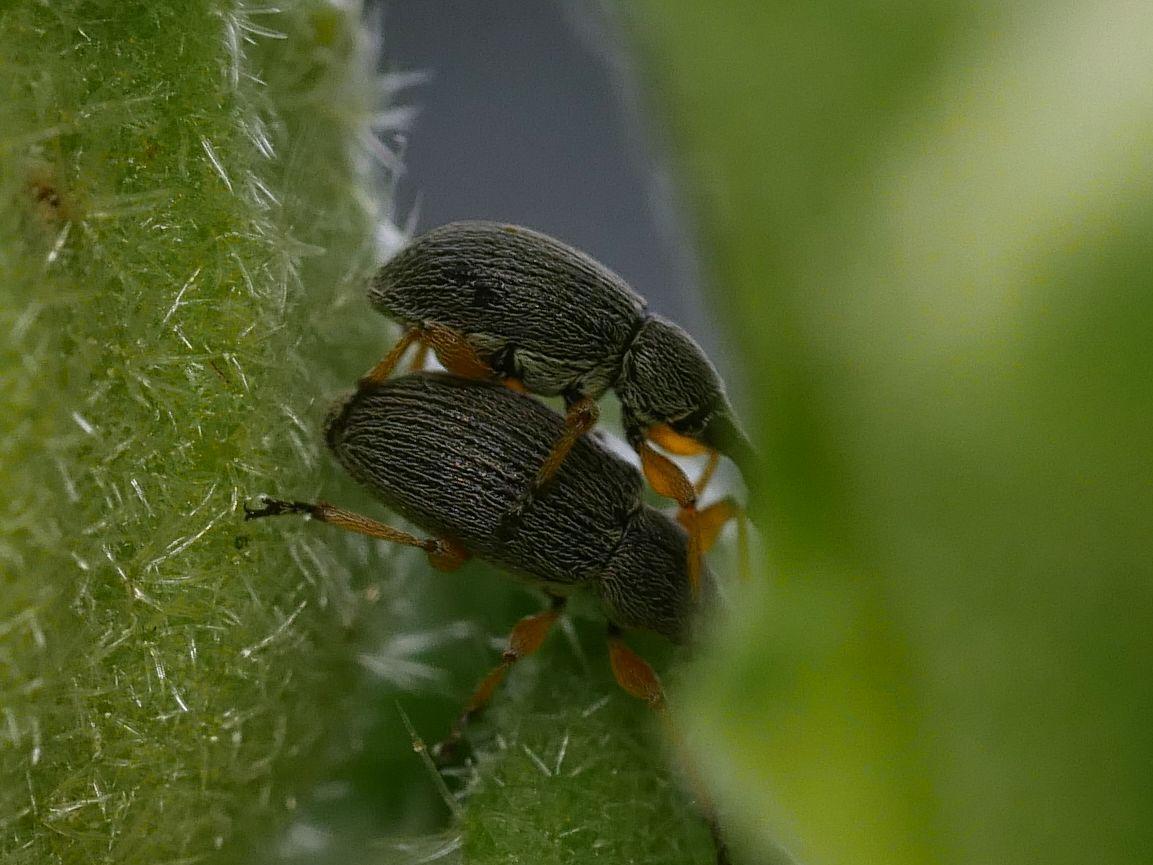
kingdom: Animalia
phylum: Arthropoda
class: Insecta
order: Coleoptera
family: Brentidae
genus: Rhopalapion
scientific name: Rhopalapion longirostre
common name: Hollyhock weevil
